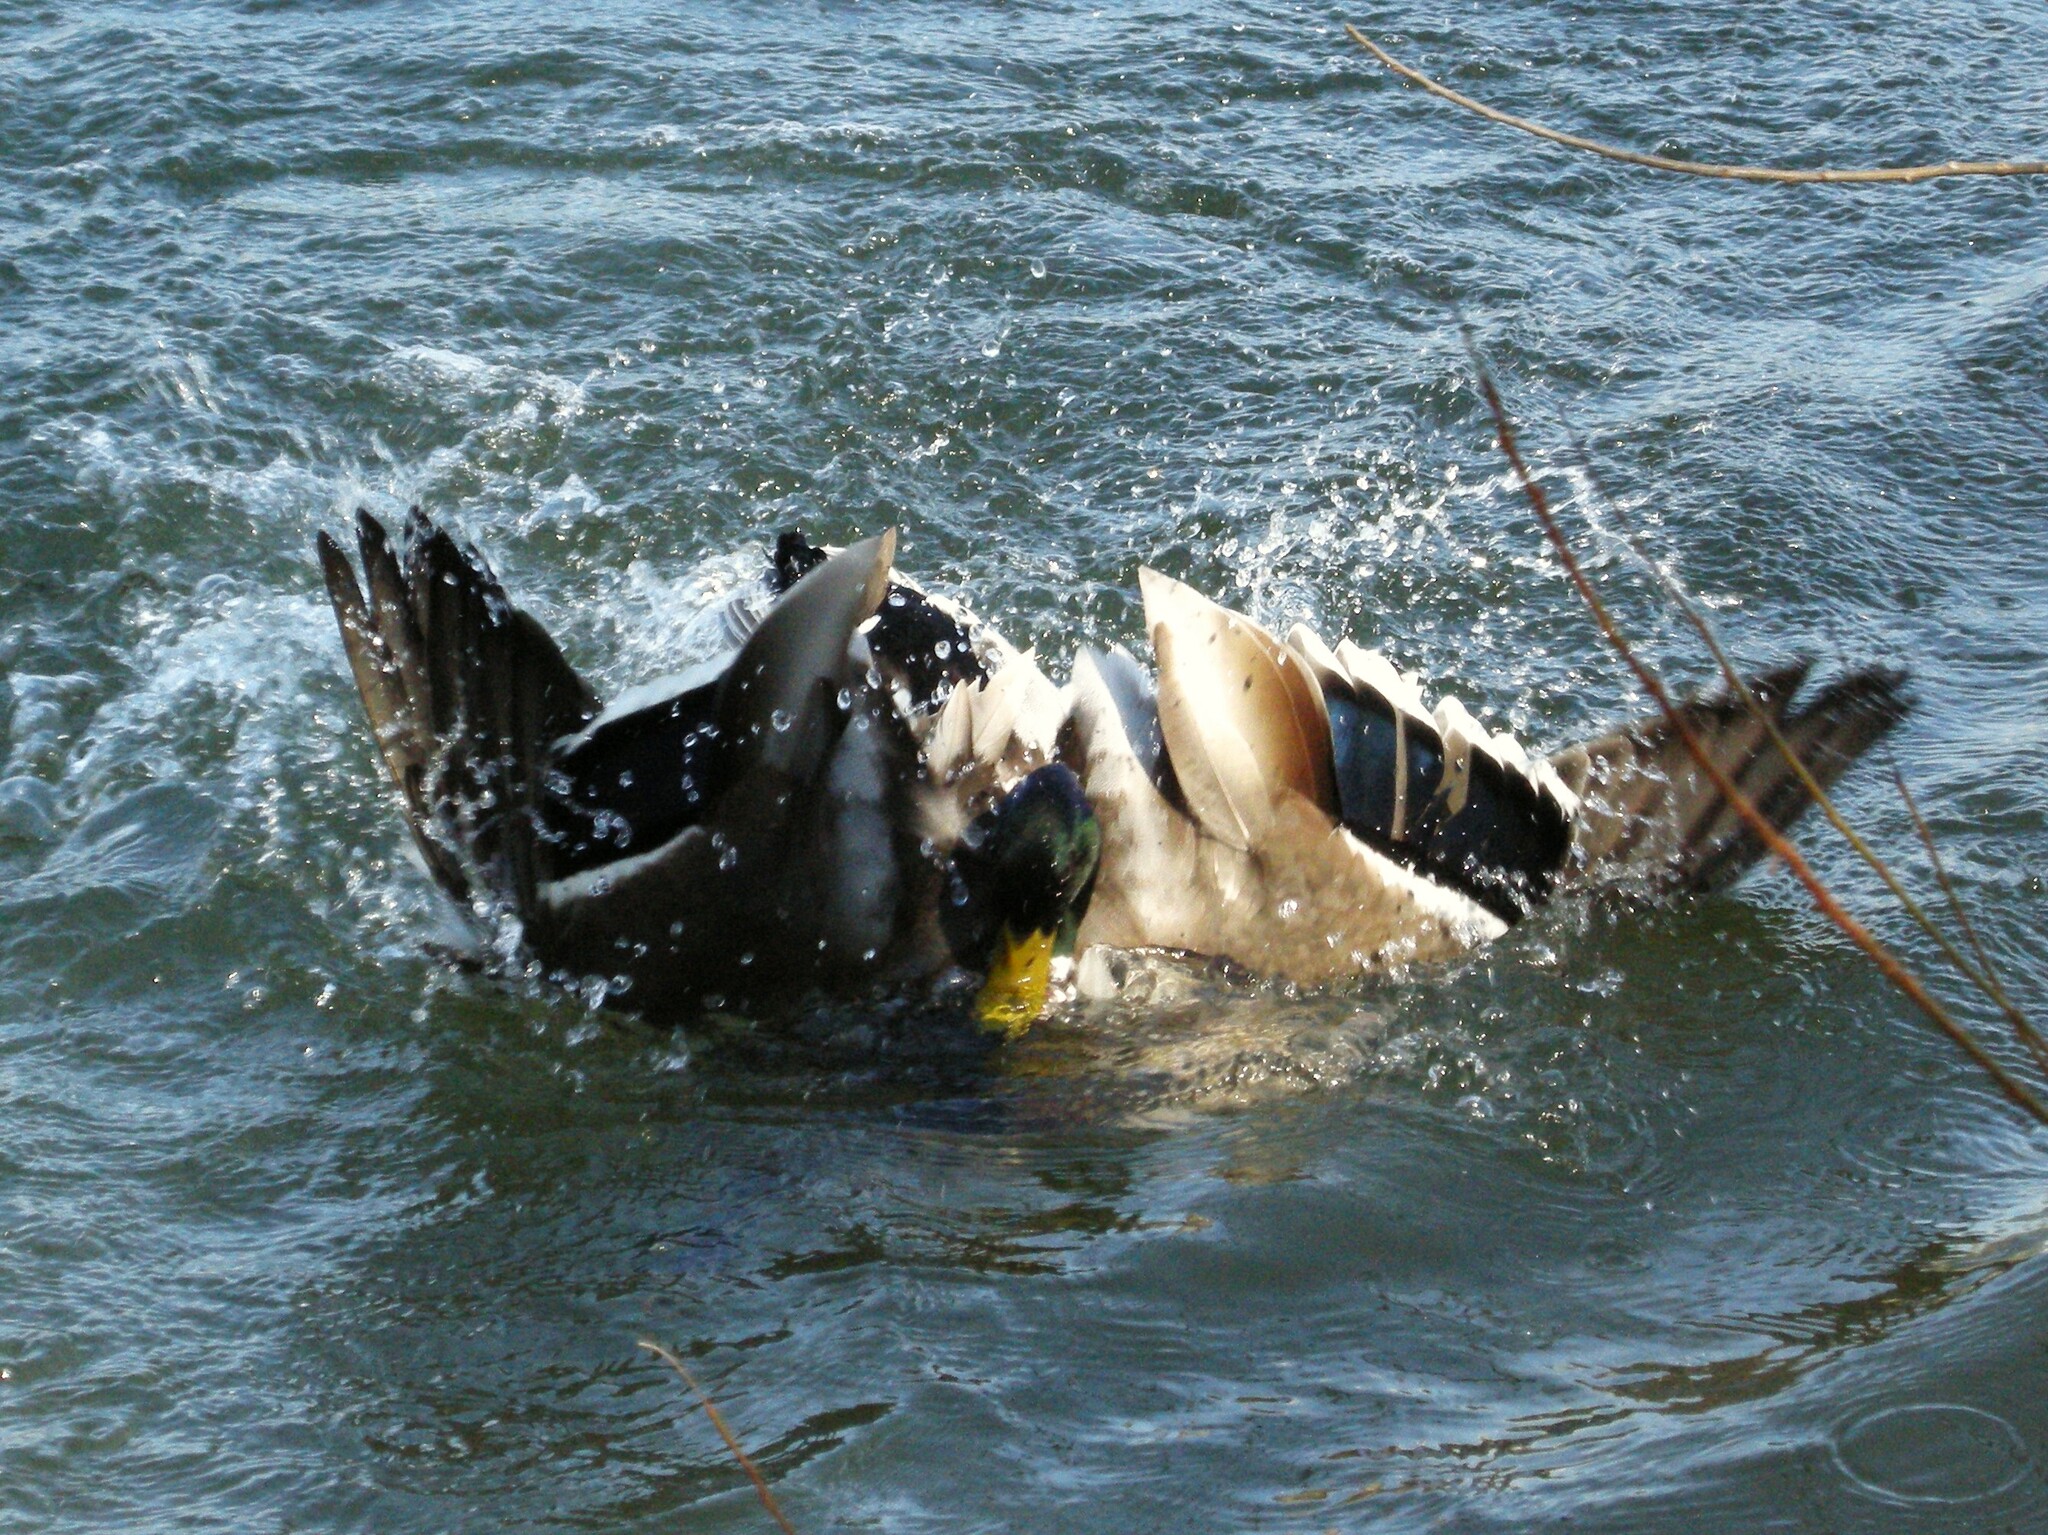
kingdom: Animalia
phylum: Chordata
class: Aves
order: Anseriformes
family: Anatidae
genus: Anas
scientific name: Anas platyrhynchos
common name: Mallard
